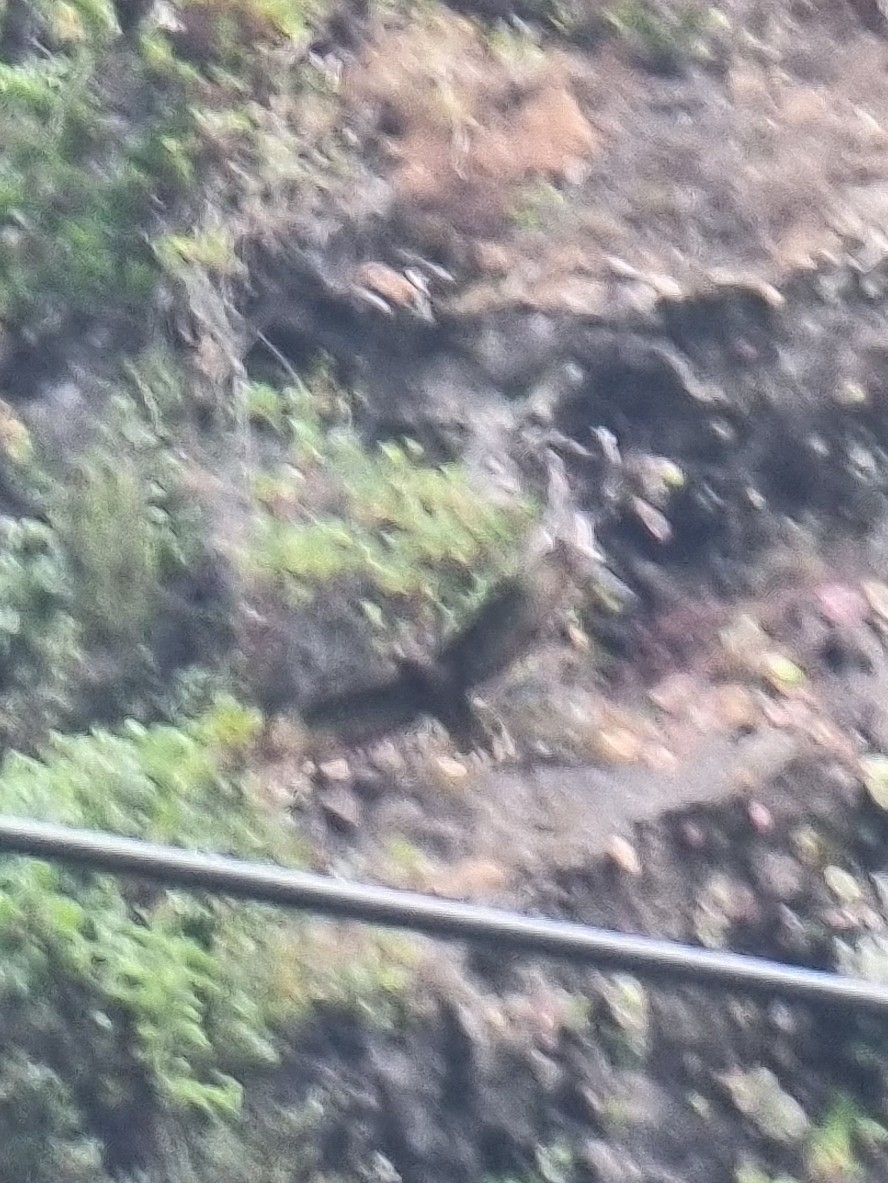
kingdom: Animalia
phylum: Chordata
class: Aves
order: Accipitriformes
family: Accipitridae
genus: Buteo
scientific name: Buteo buteo
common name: Common buzzard
